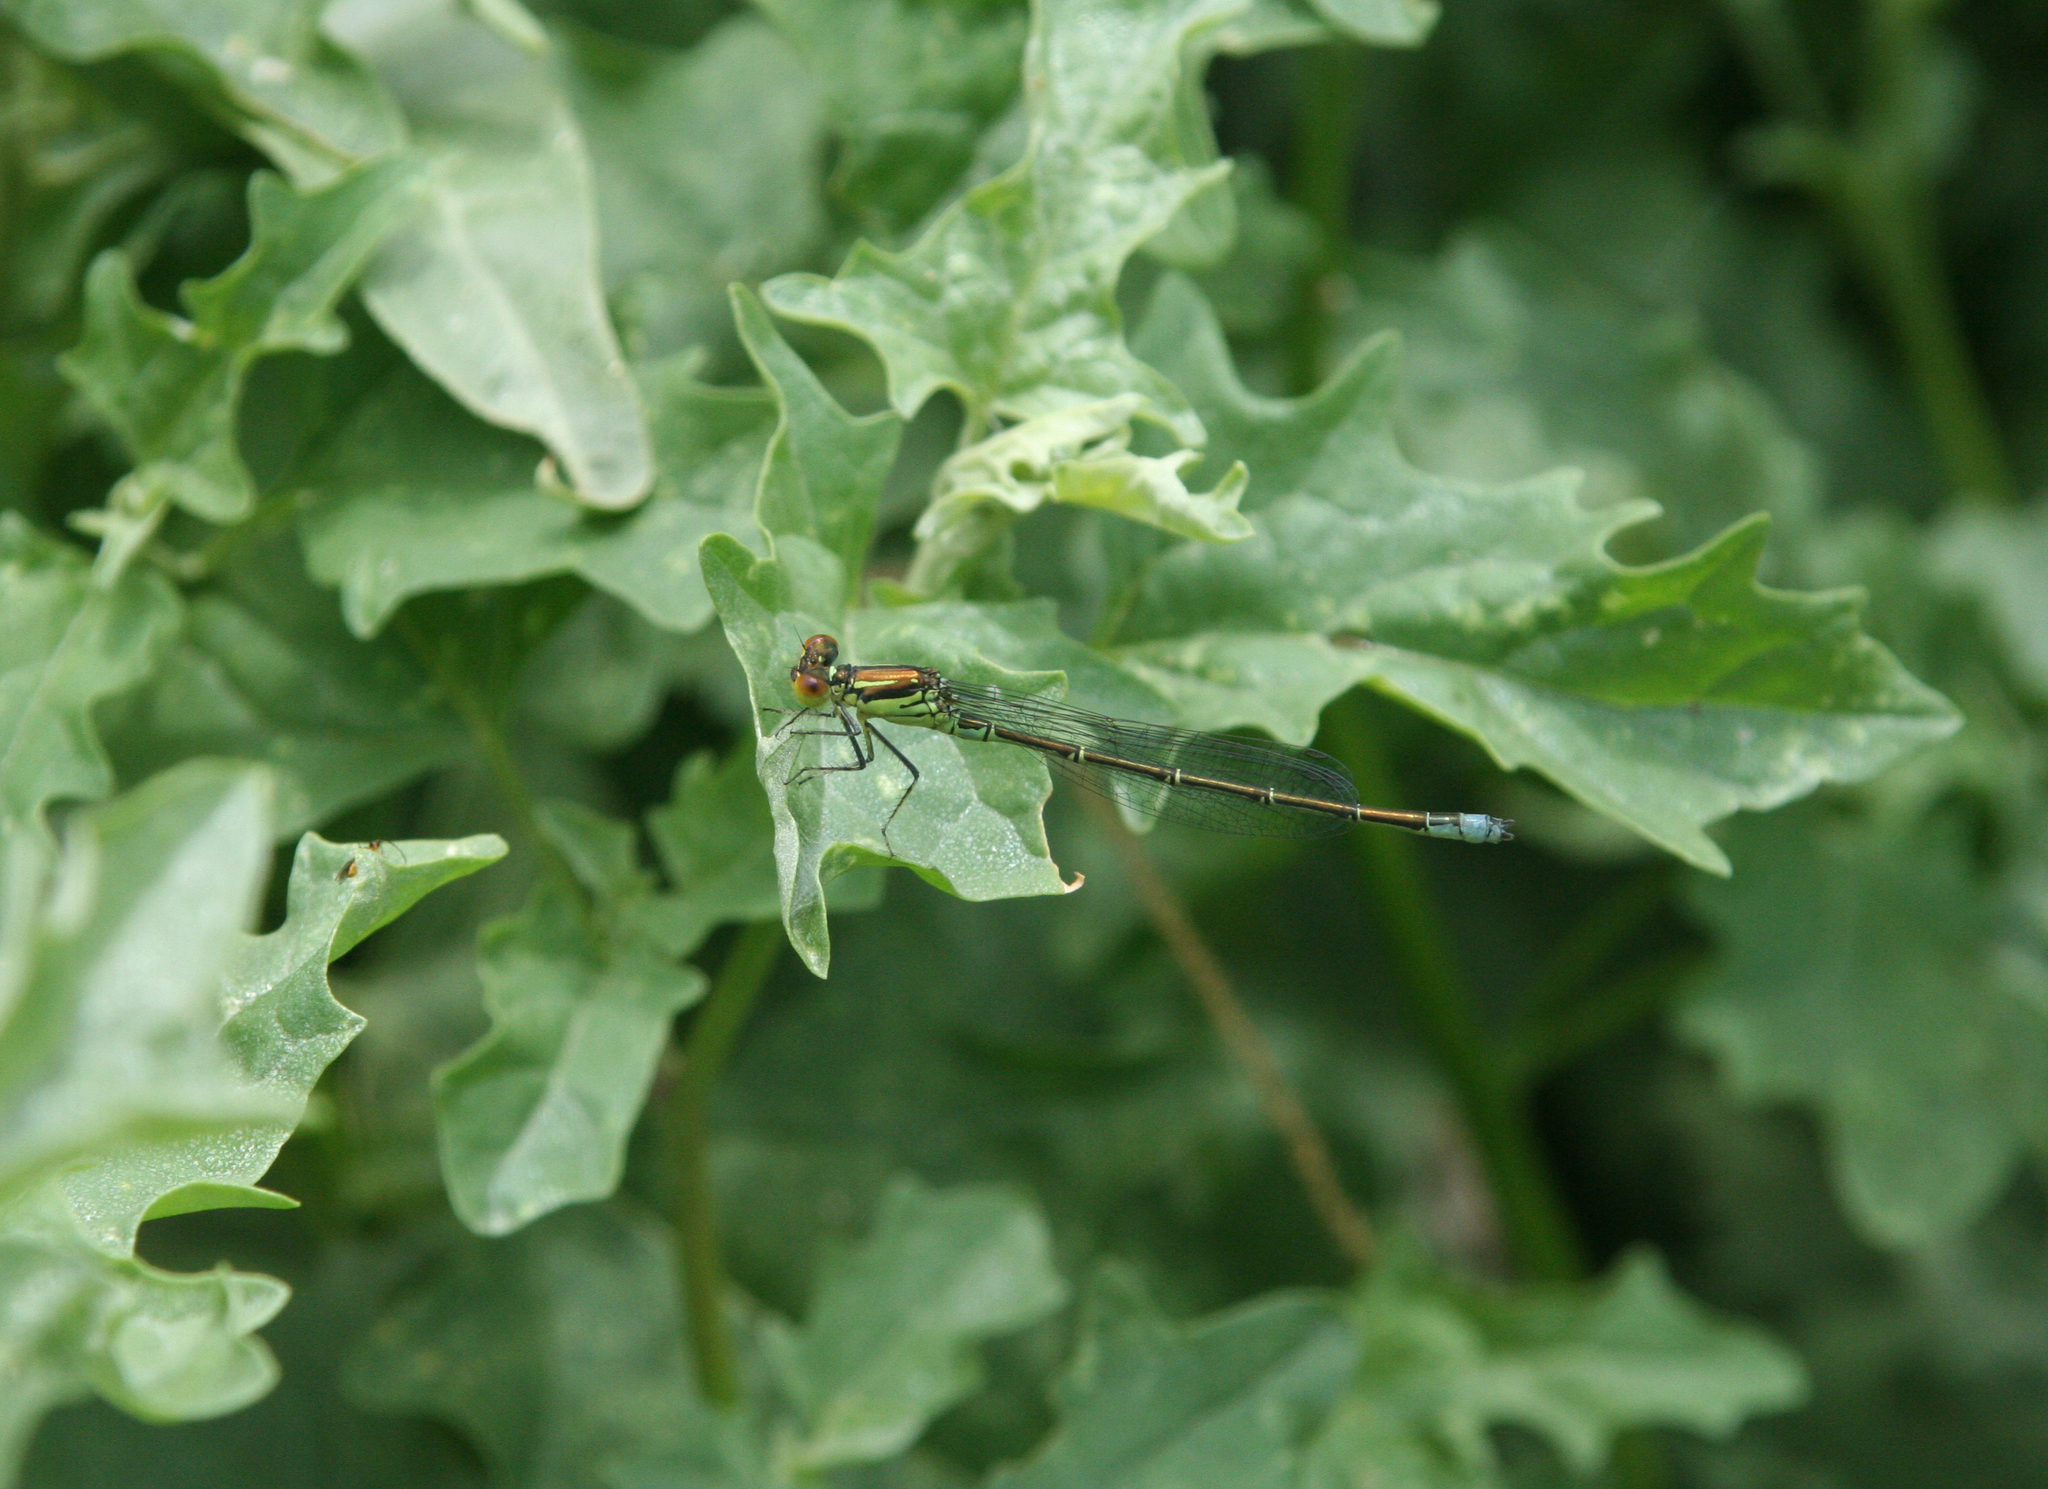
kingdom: Animalia
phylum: Arthropoda
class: Insecta
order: Odonata
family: Coenagrionidae
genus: Erythromma
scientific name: Erythromma viridulum
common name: Small red-eyed damselfly
